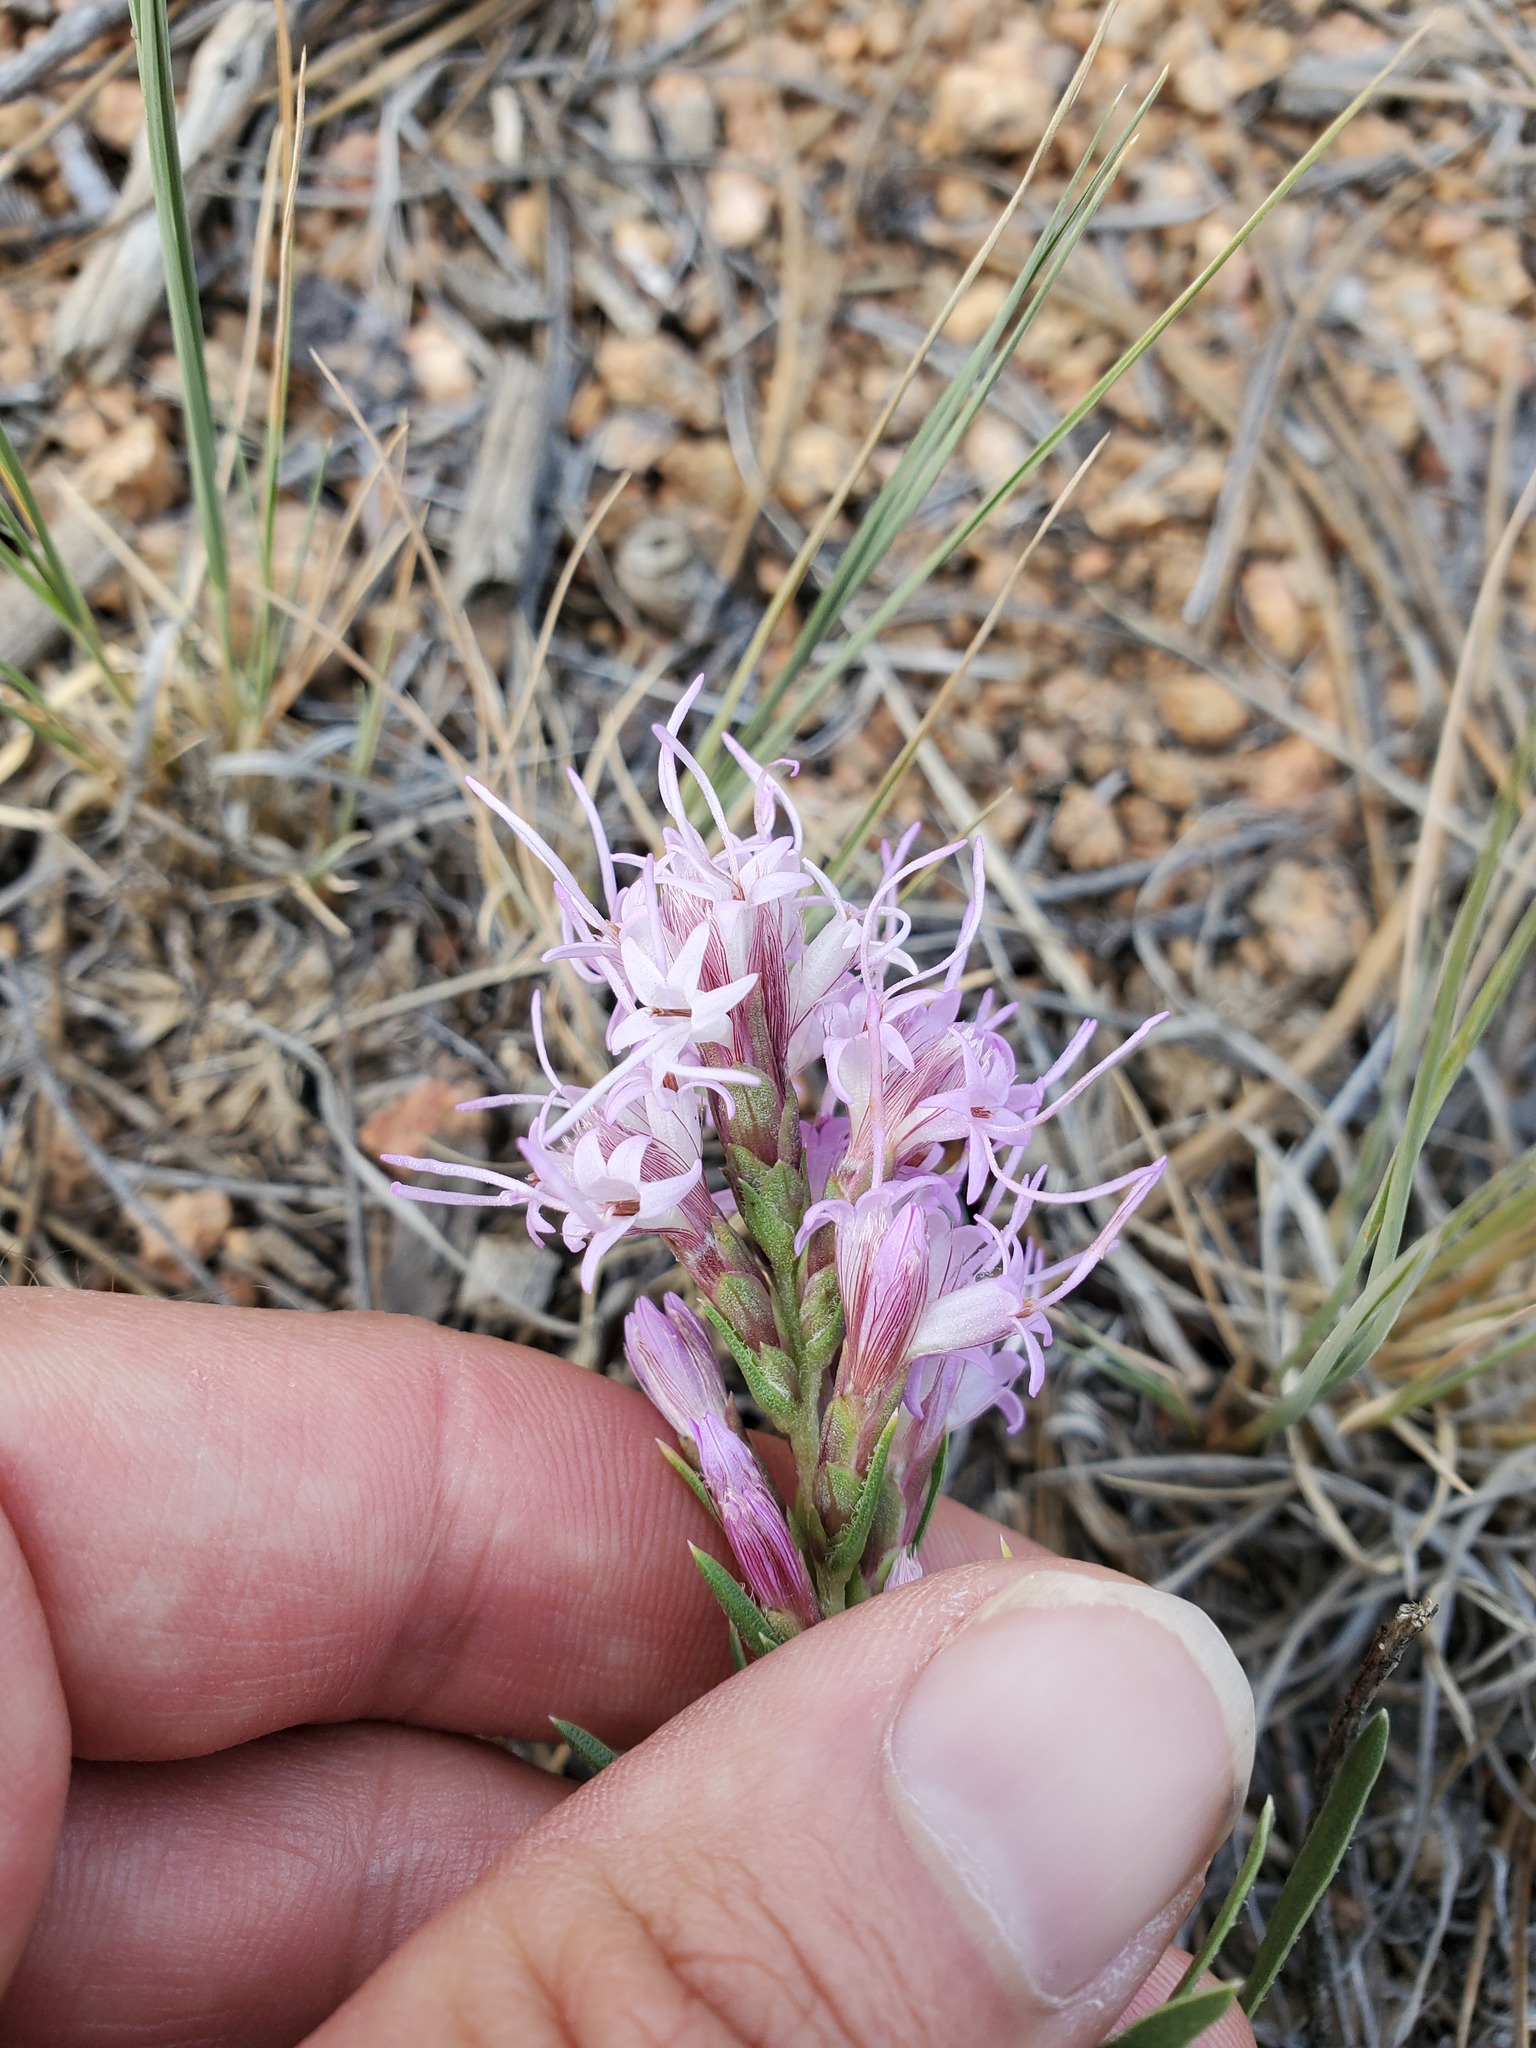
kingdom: Plantae
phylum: Tracheophyta
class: Magnoliopsida
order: Asterales
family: Asteraceae
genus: Liatris
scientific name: Liatris punctata
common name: Dotted gayfeather
